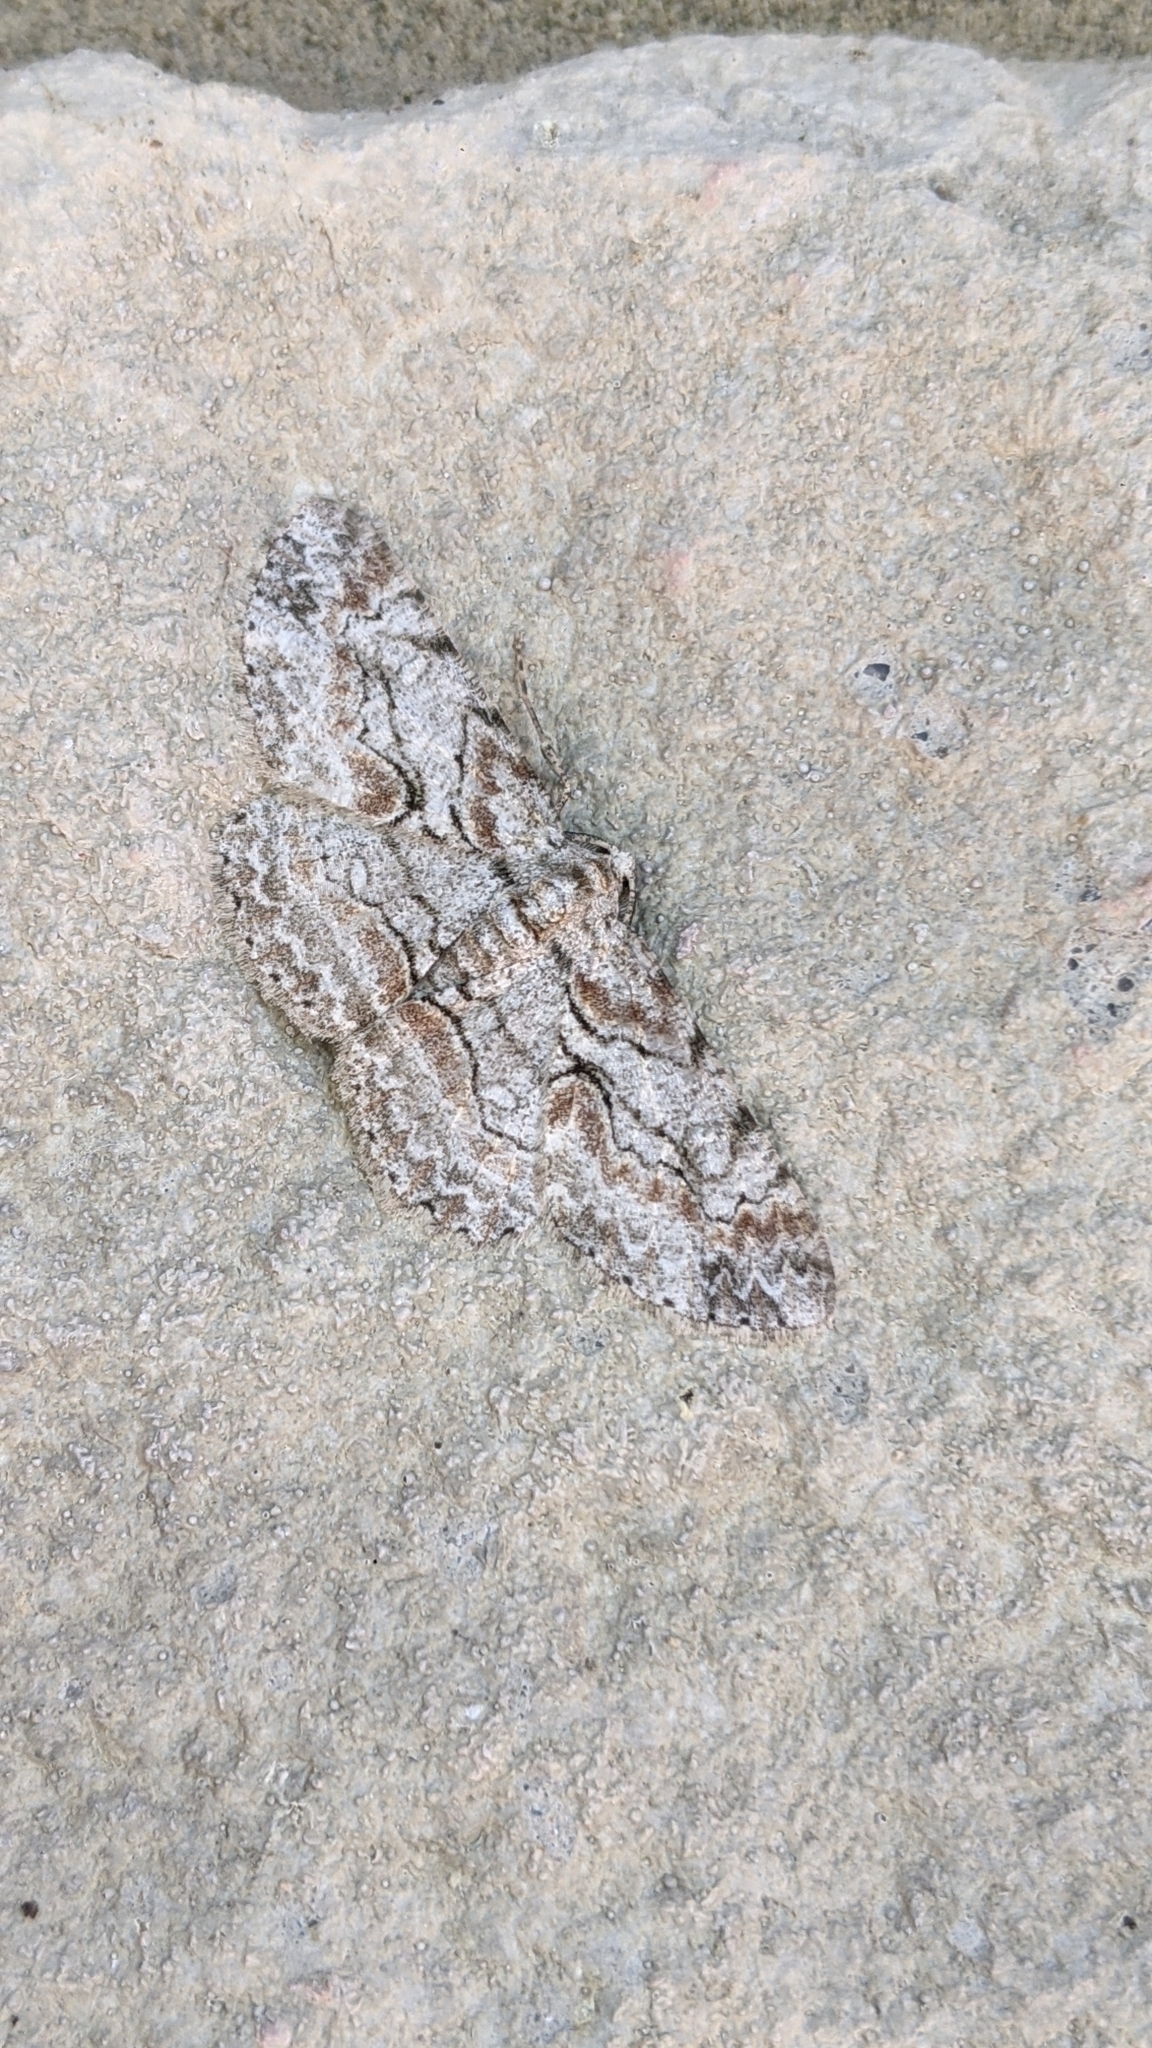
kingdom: Animalia
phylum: Arthropoda
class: Insecta
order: Lepidoptera
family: Geometridae
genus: Iridopsis
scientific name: Iridopsis defectaria
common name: Brown-shaded gray
